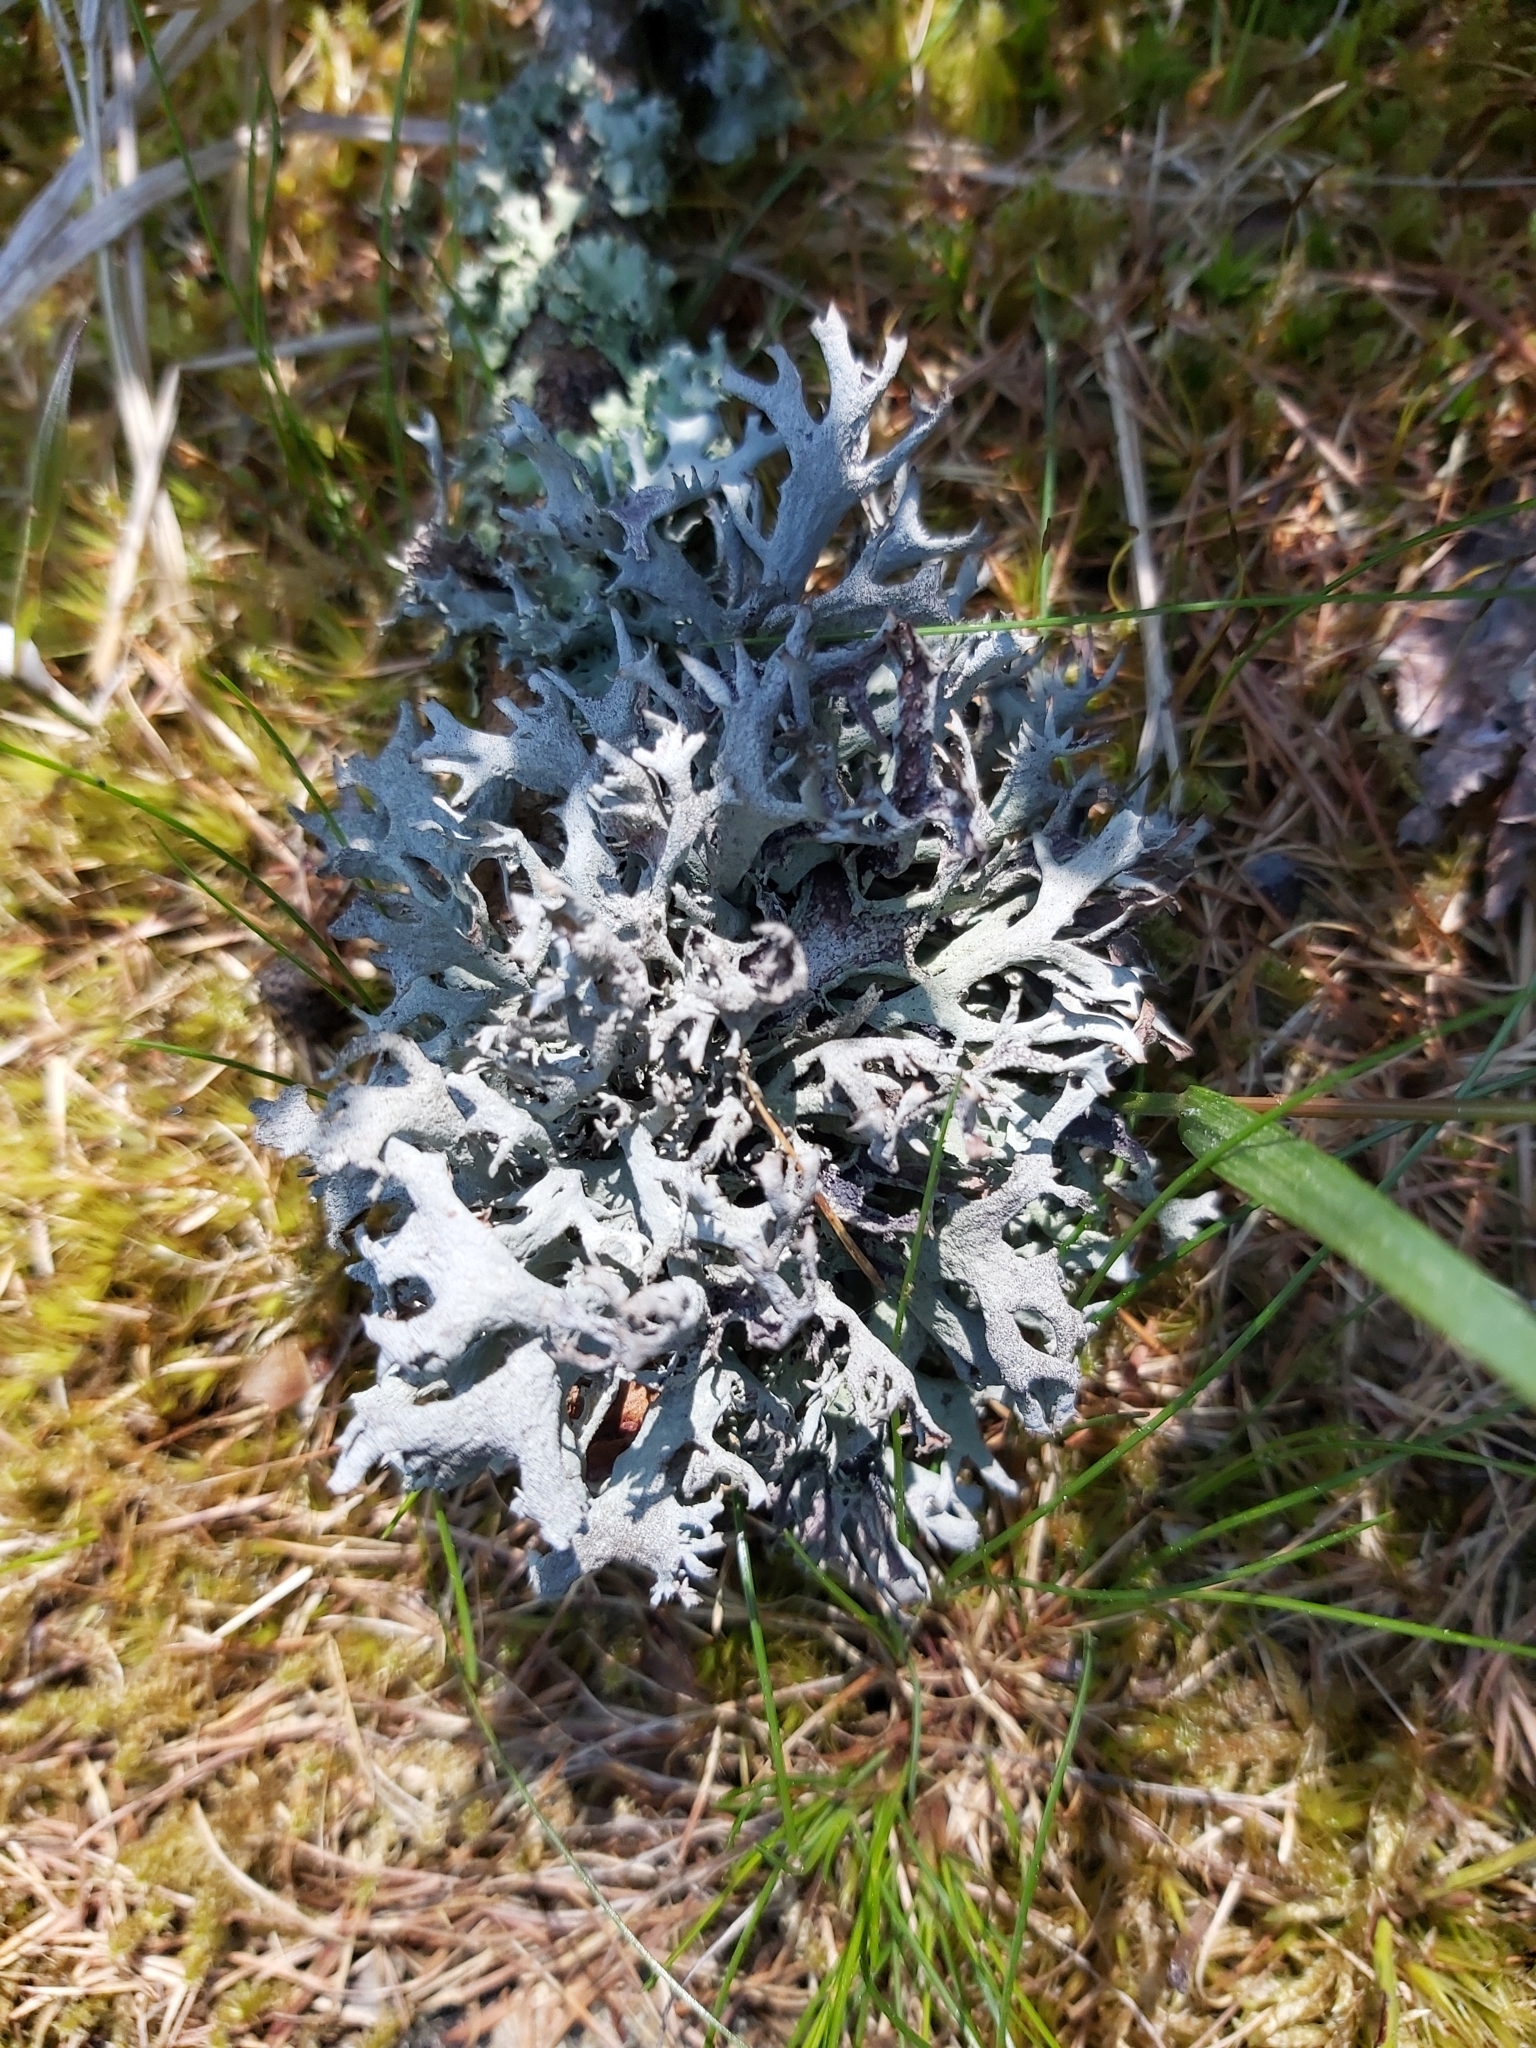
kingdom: Fungi
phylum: Ascomycota
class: Lecanoromycetes
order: Lecanorales
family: Parmeliaceae
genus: Pseudevernia
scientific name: Pseudevernia furfuracea
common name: Tree moss
